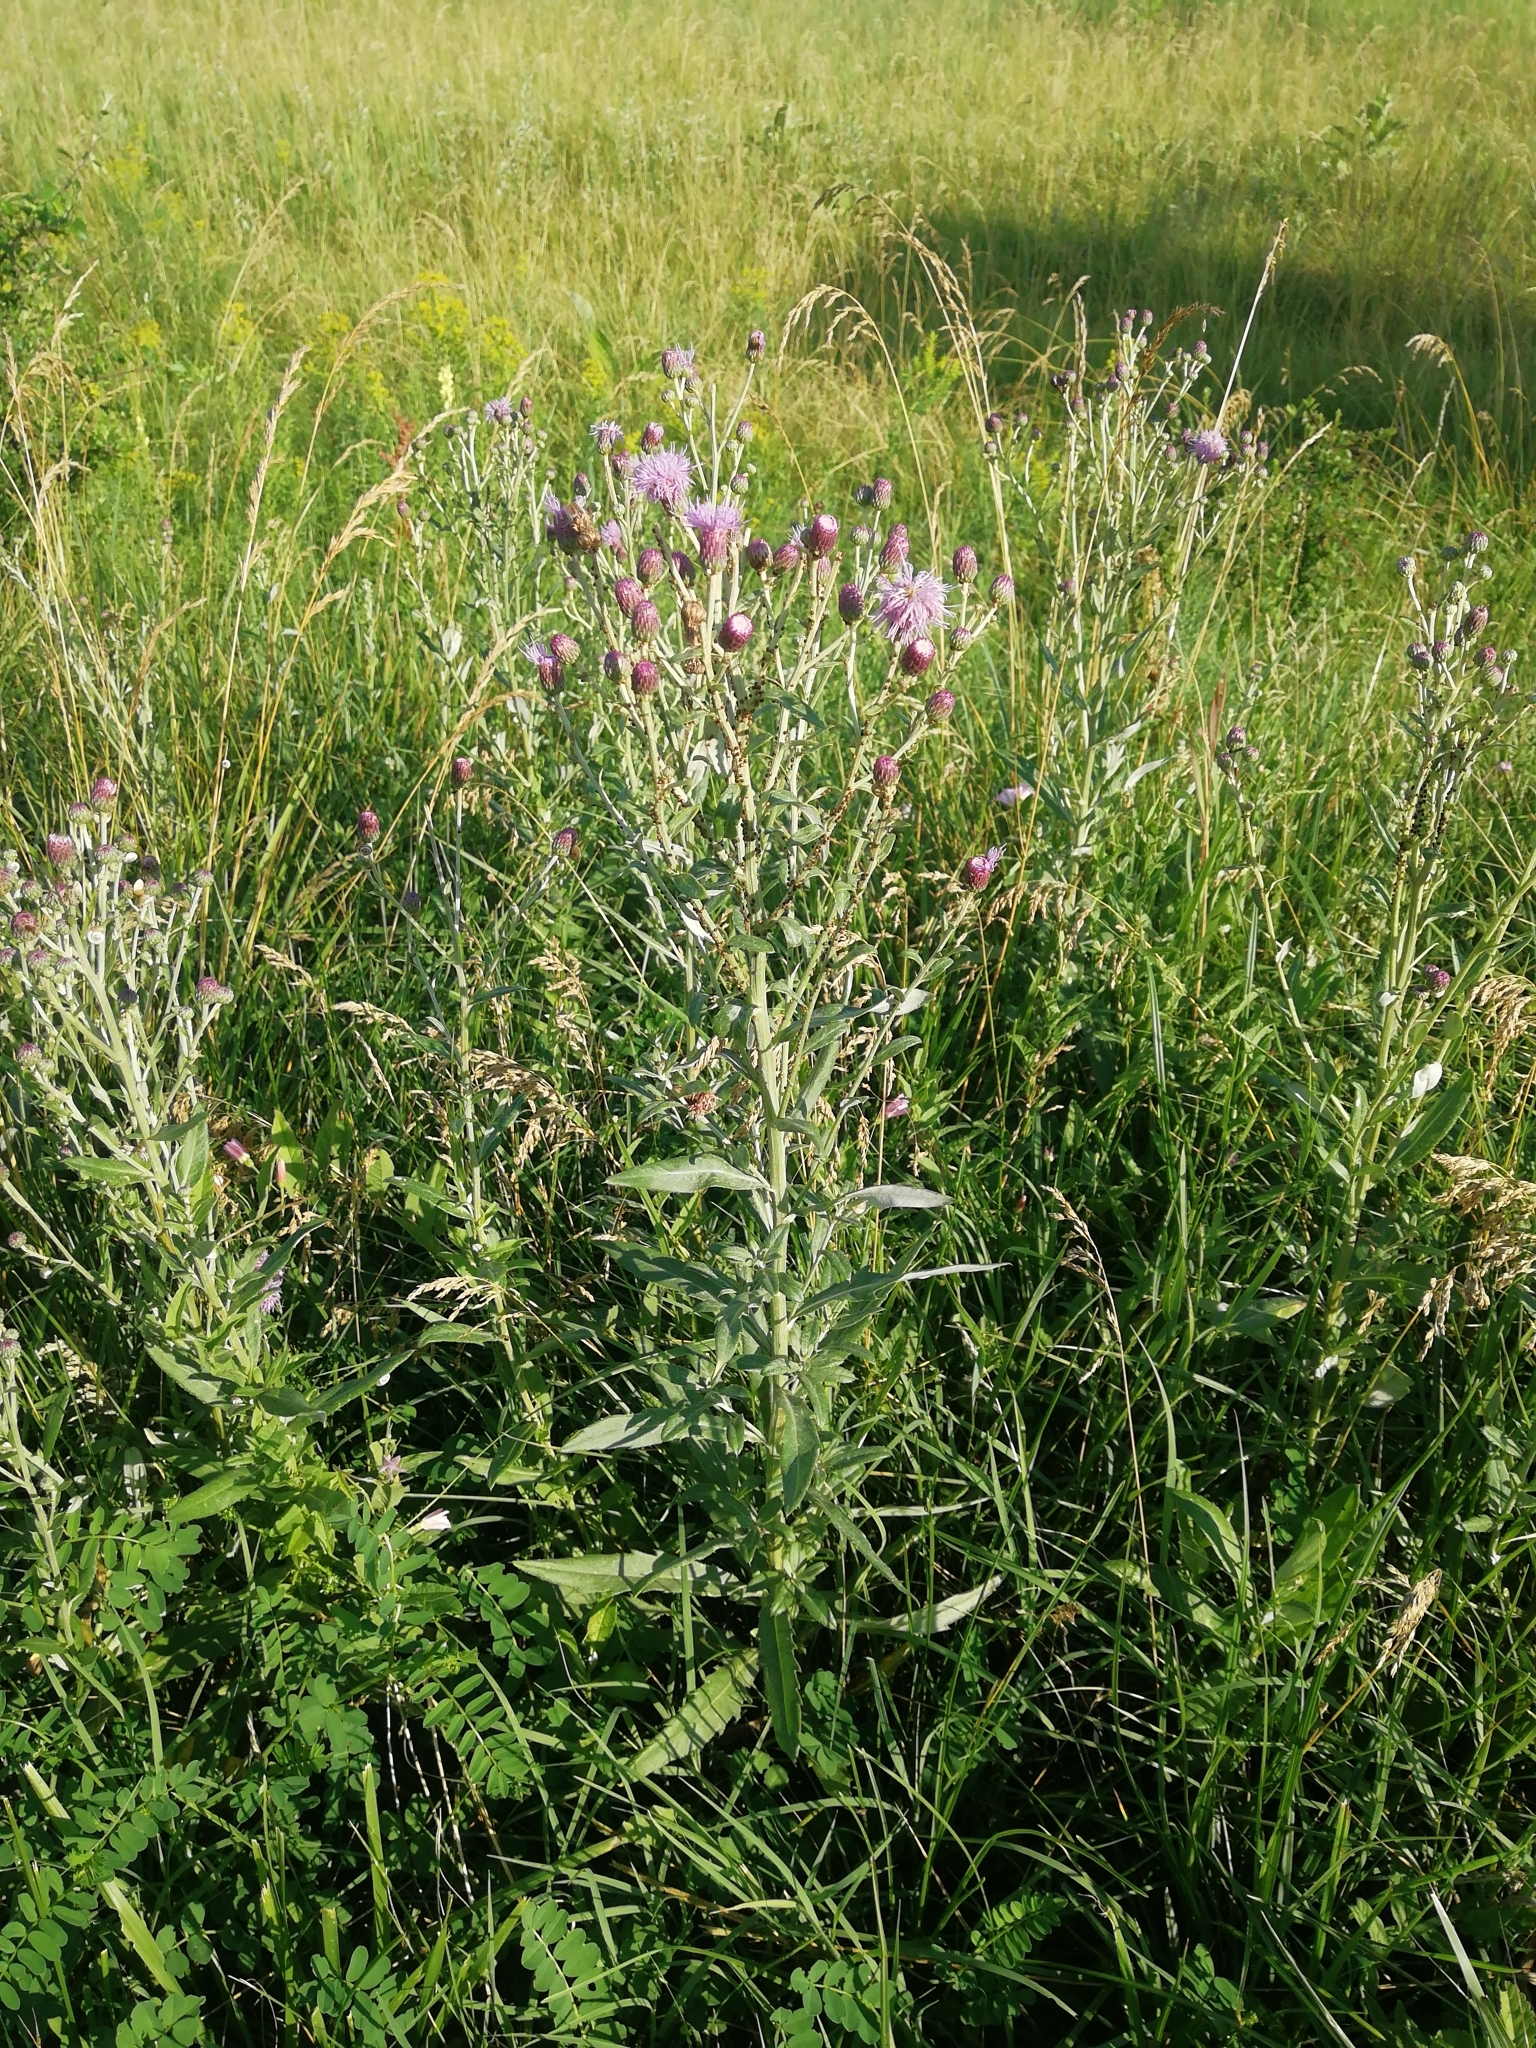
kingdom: Plantae
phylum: Tracheophyta
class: Magnoliopsida
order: Asterales
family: Asteraceae
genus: Cirsium
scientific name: Cirsium arvense
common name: Creeping thistle
